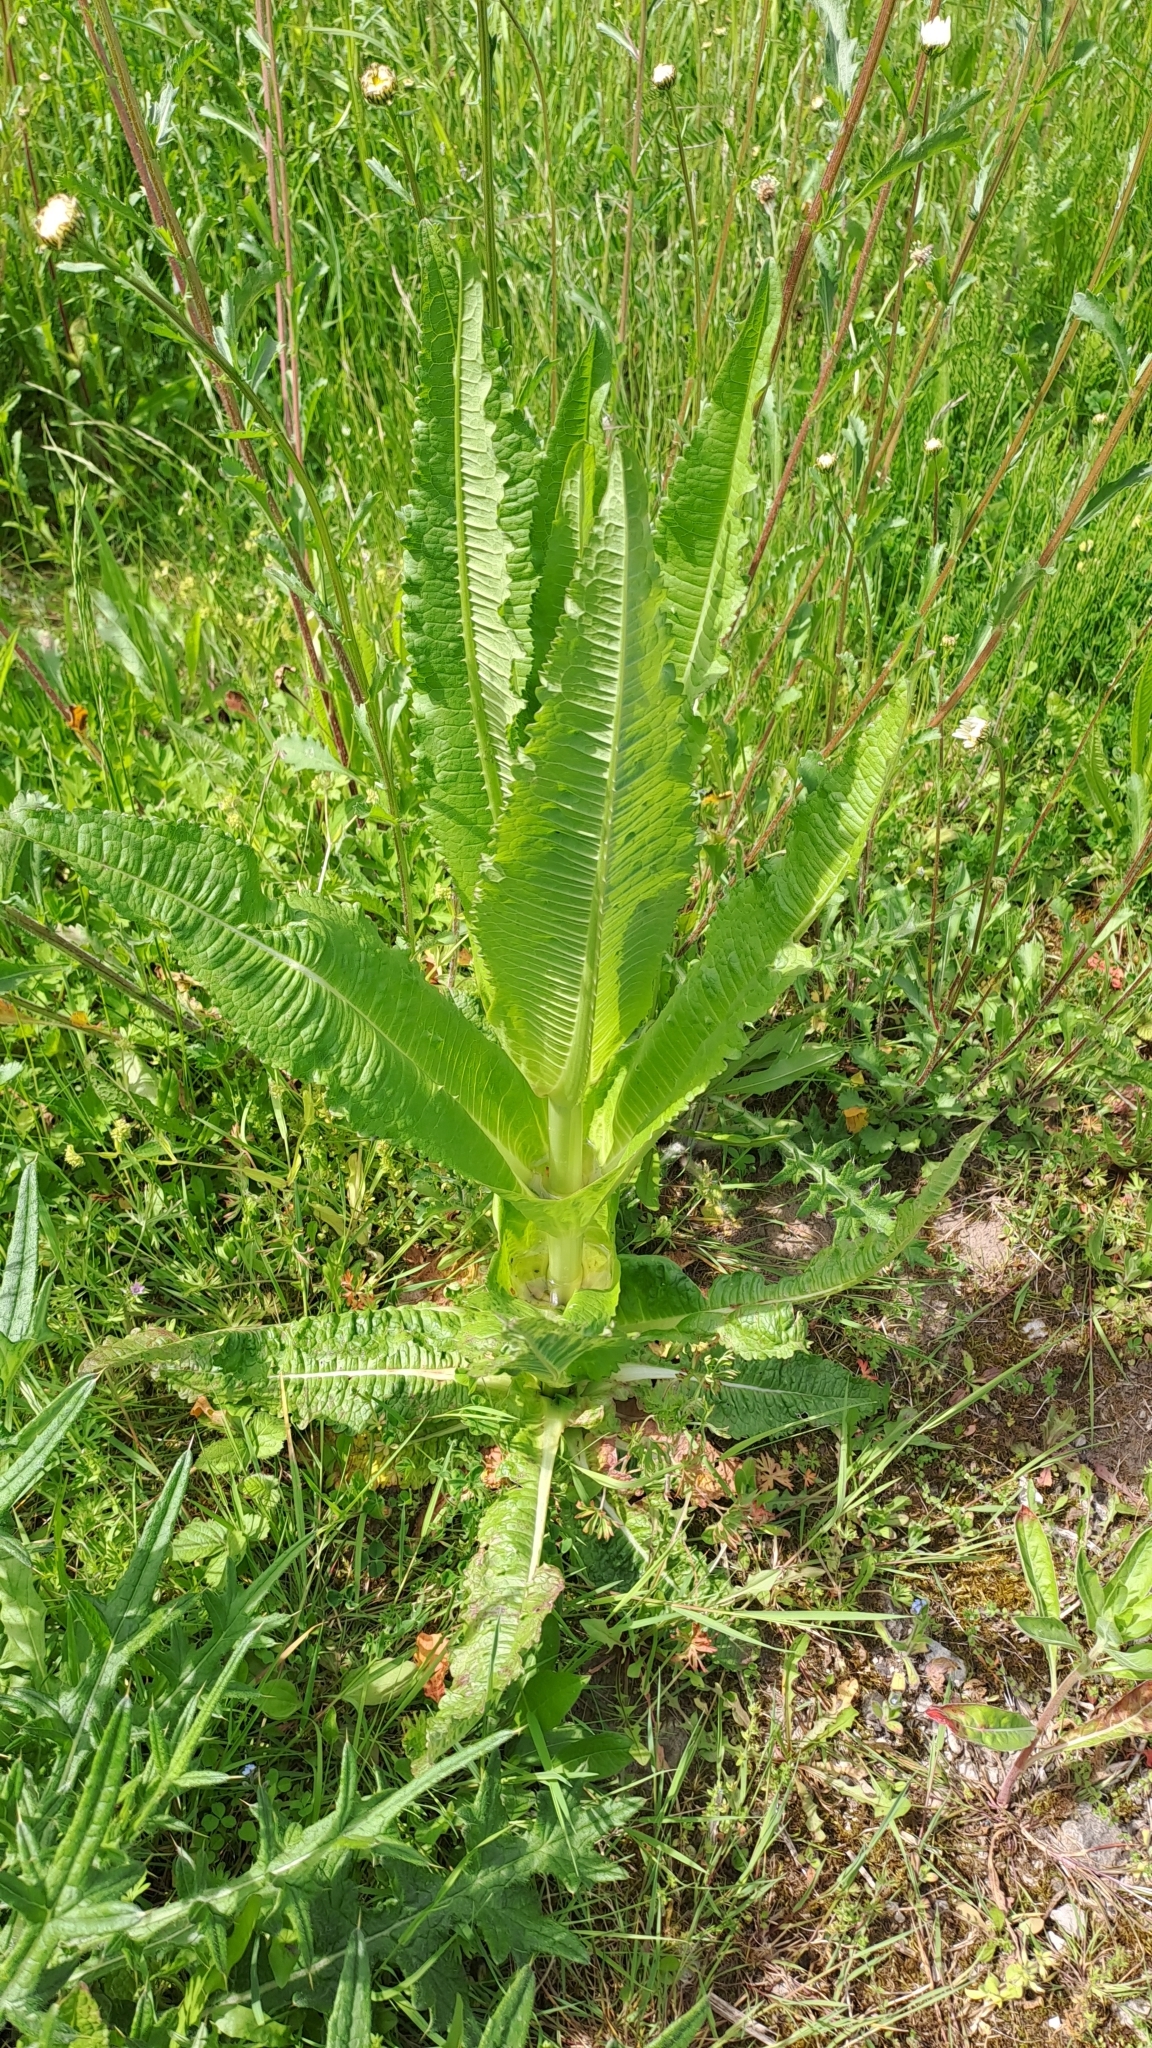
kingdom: Plantae
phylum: Tracheophyta
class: Magnoliopsida
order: Dipsacales
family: Caprifoliaceae
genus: Dipsacus
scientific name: Dipsacus fullonum
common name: Teasel
